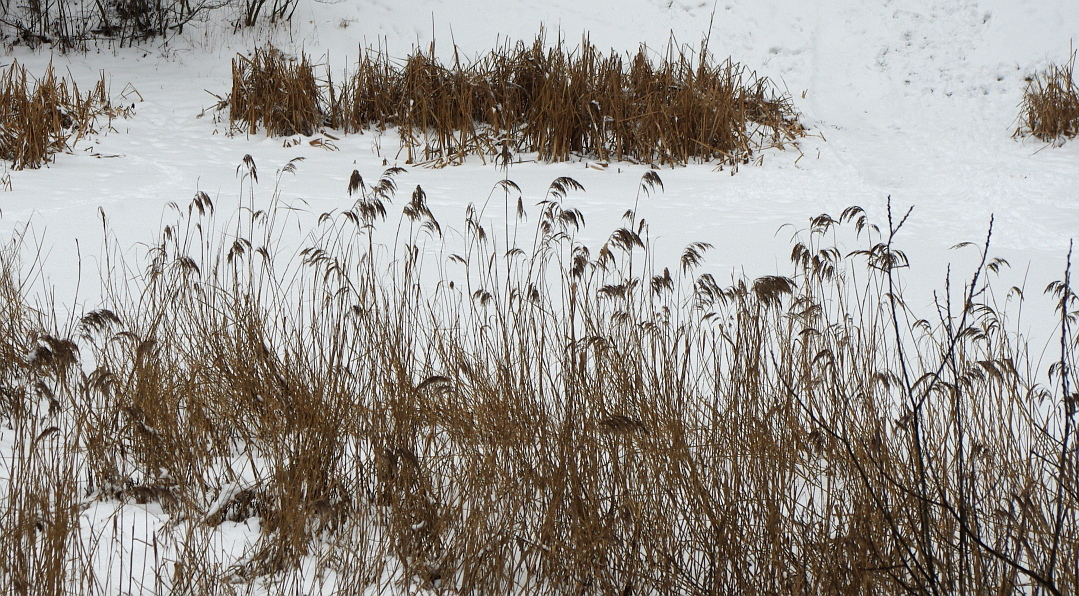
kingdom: Plantae
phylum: Tracheophyta
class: Liliopsida
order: Poales
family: Poaceae
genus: Phragmites
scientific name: Phragmites australis
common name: Common reed
